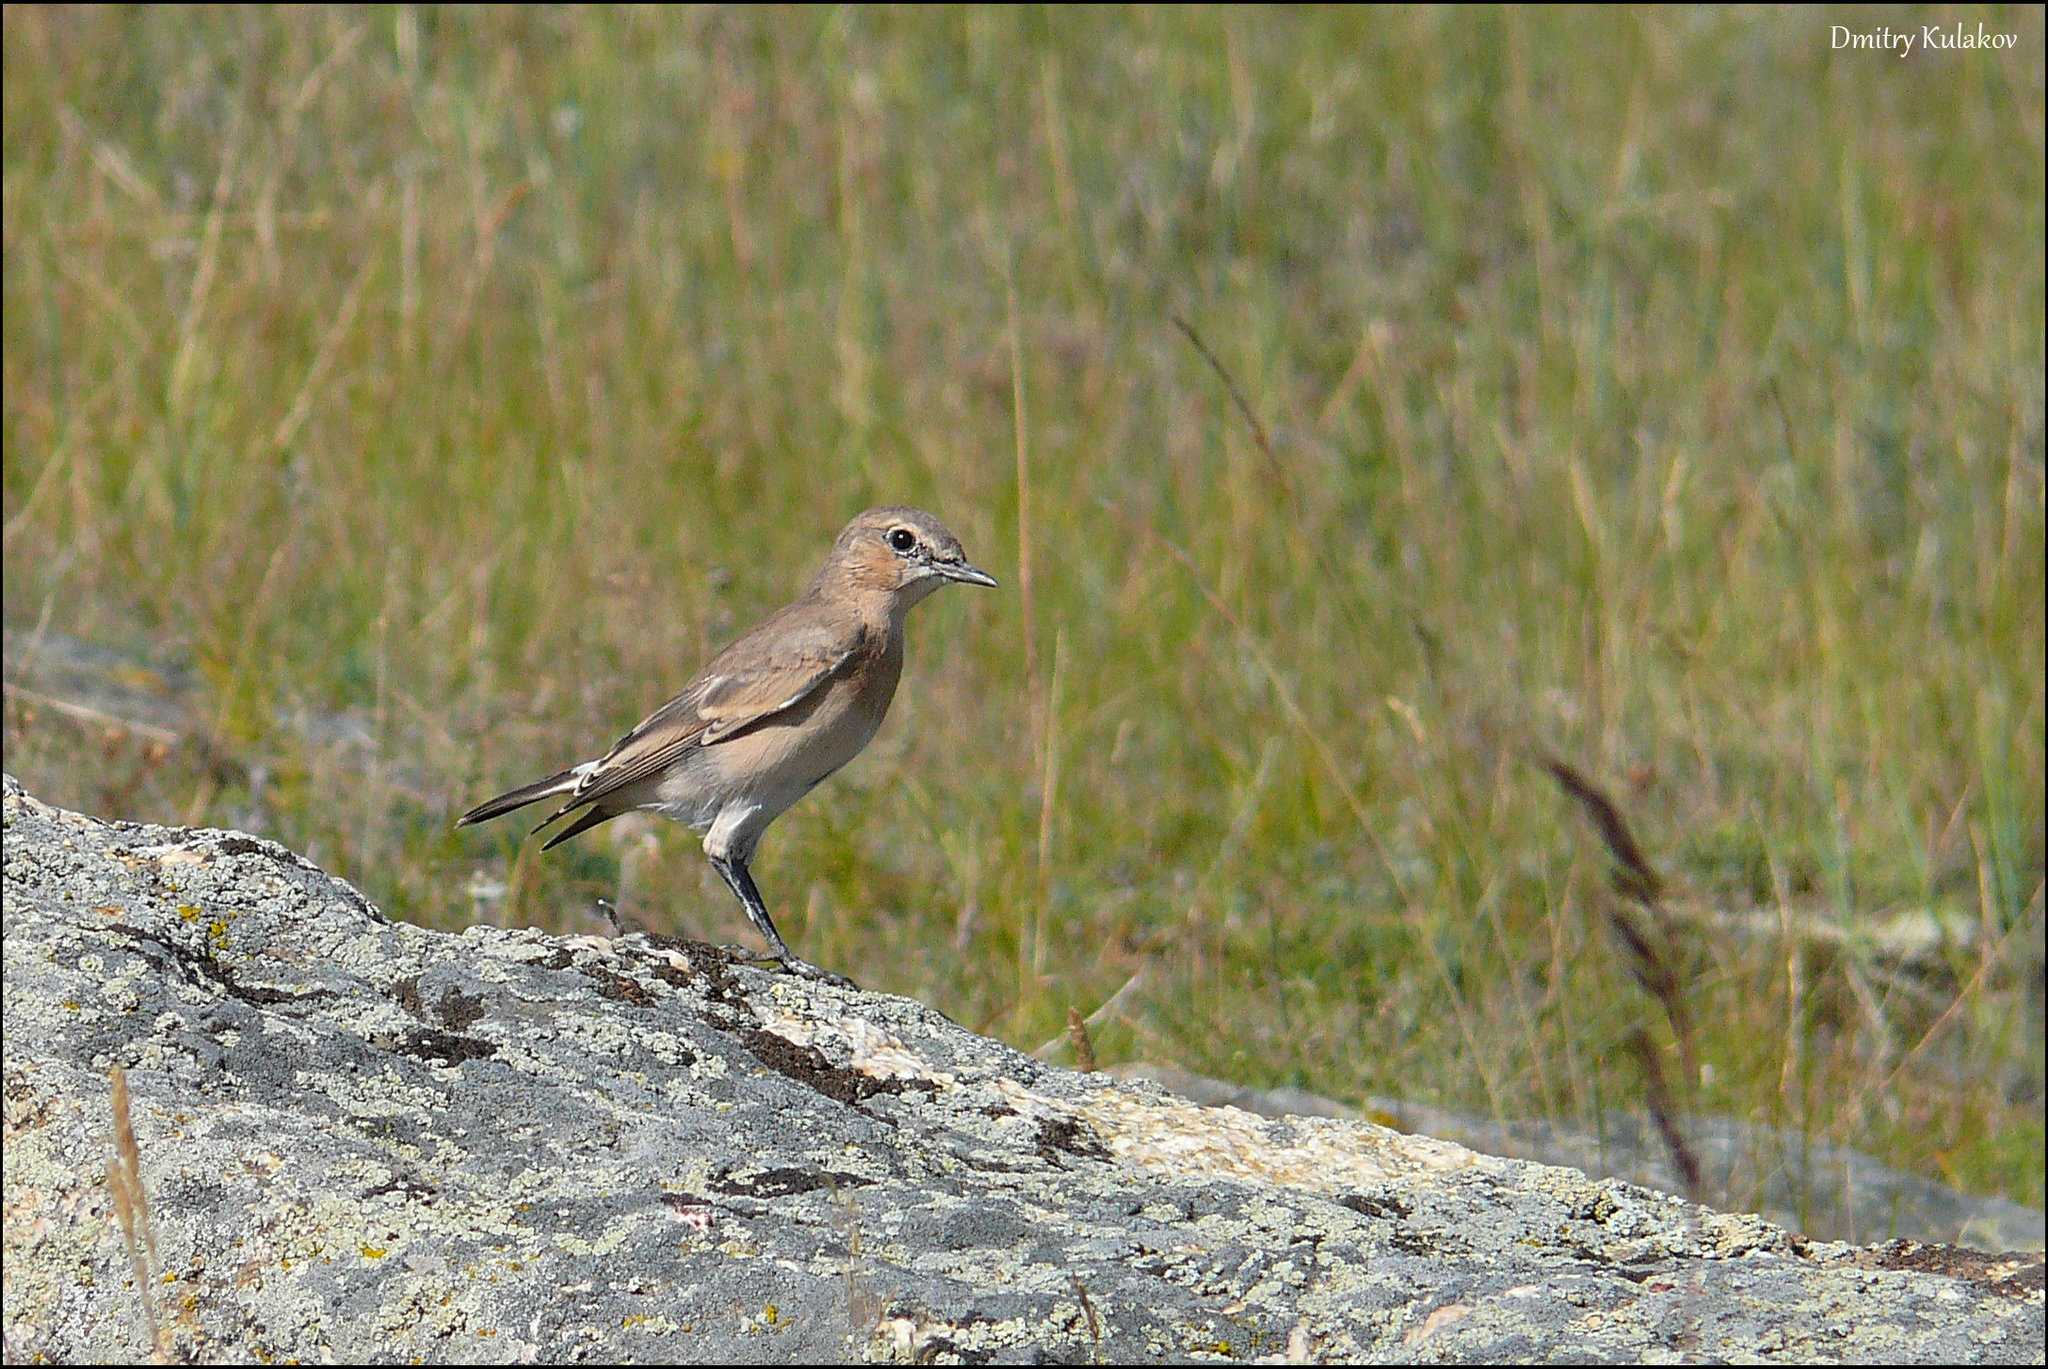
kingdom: Animalia
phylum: Chordata
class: Aves
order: Passeriformes
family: Muscicapidae
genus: Oenanthe
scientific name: Oenanthe isabellina
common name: Isabelline wheatear
